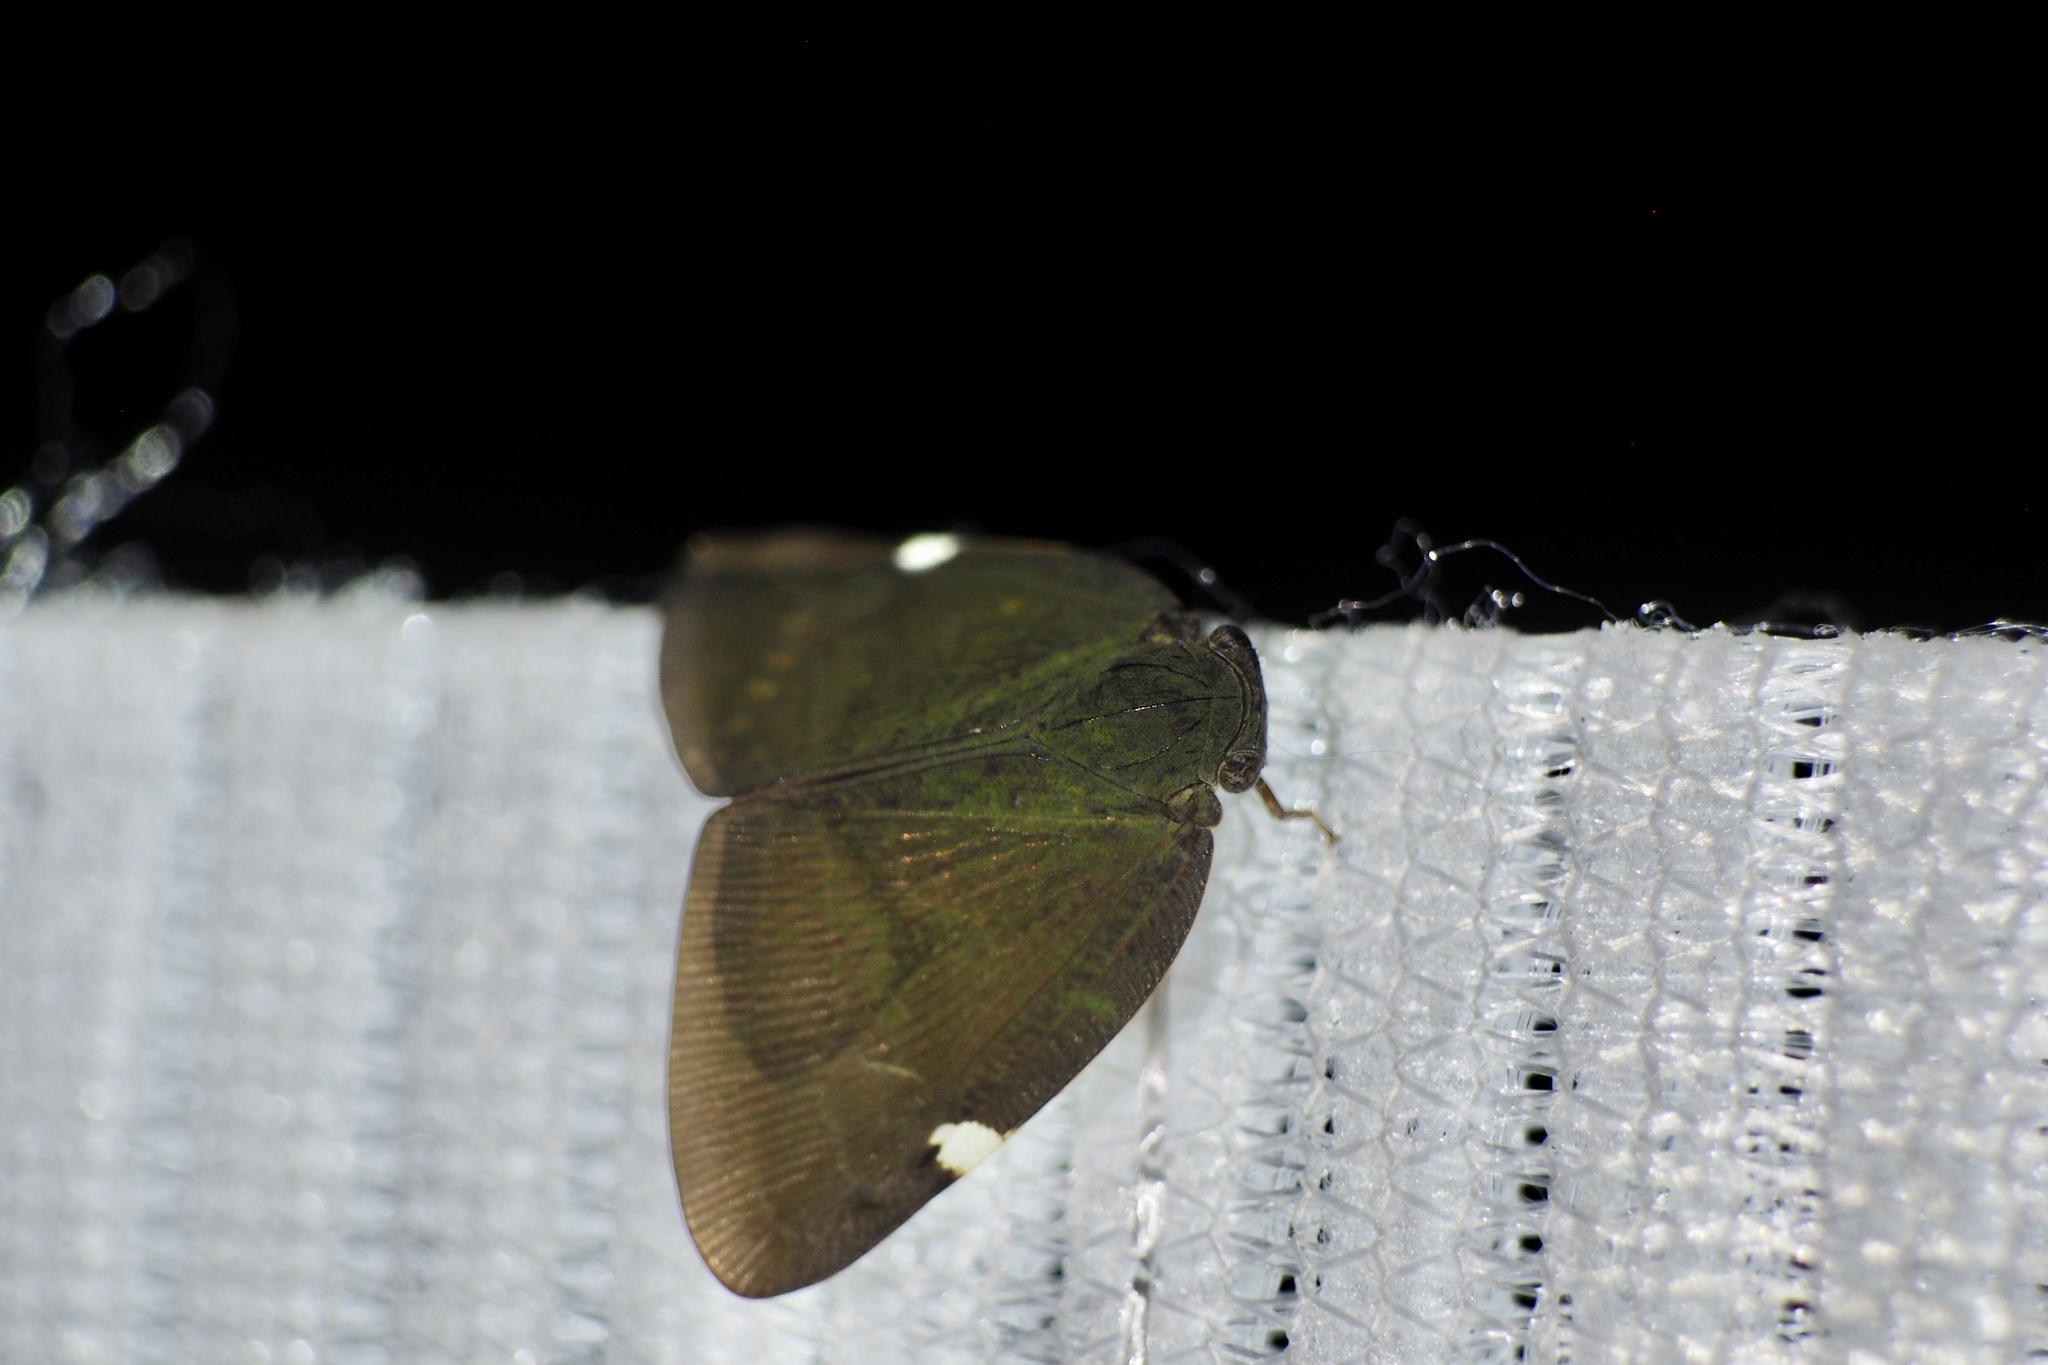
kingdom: Animalia
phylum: Arthropoda
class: Insecta
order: Hemiptera
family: Ricaniidae
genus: Pochazia
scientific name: Pochazia albomaculata
